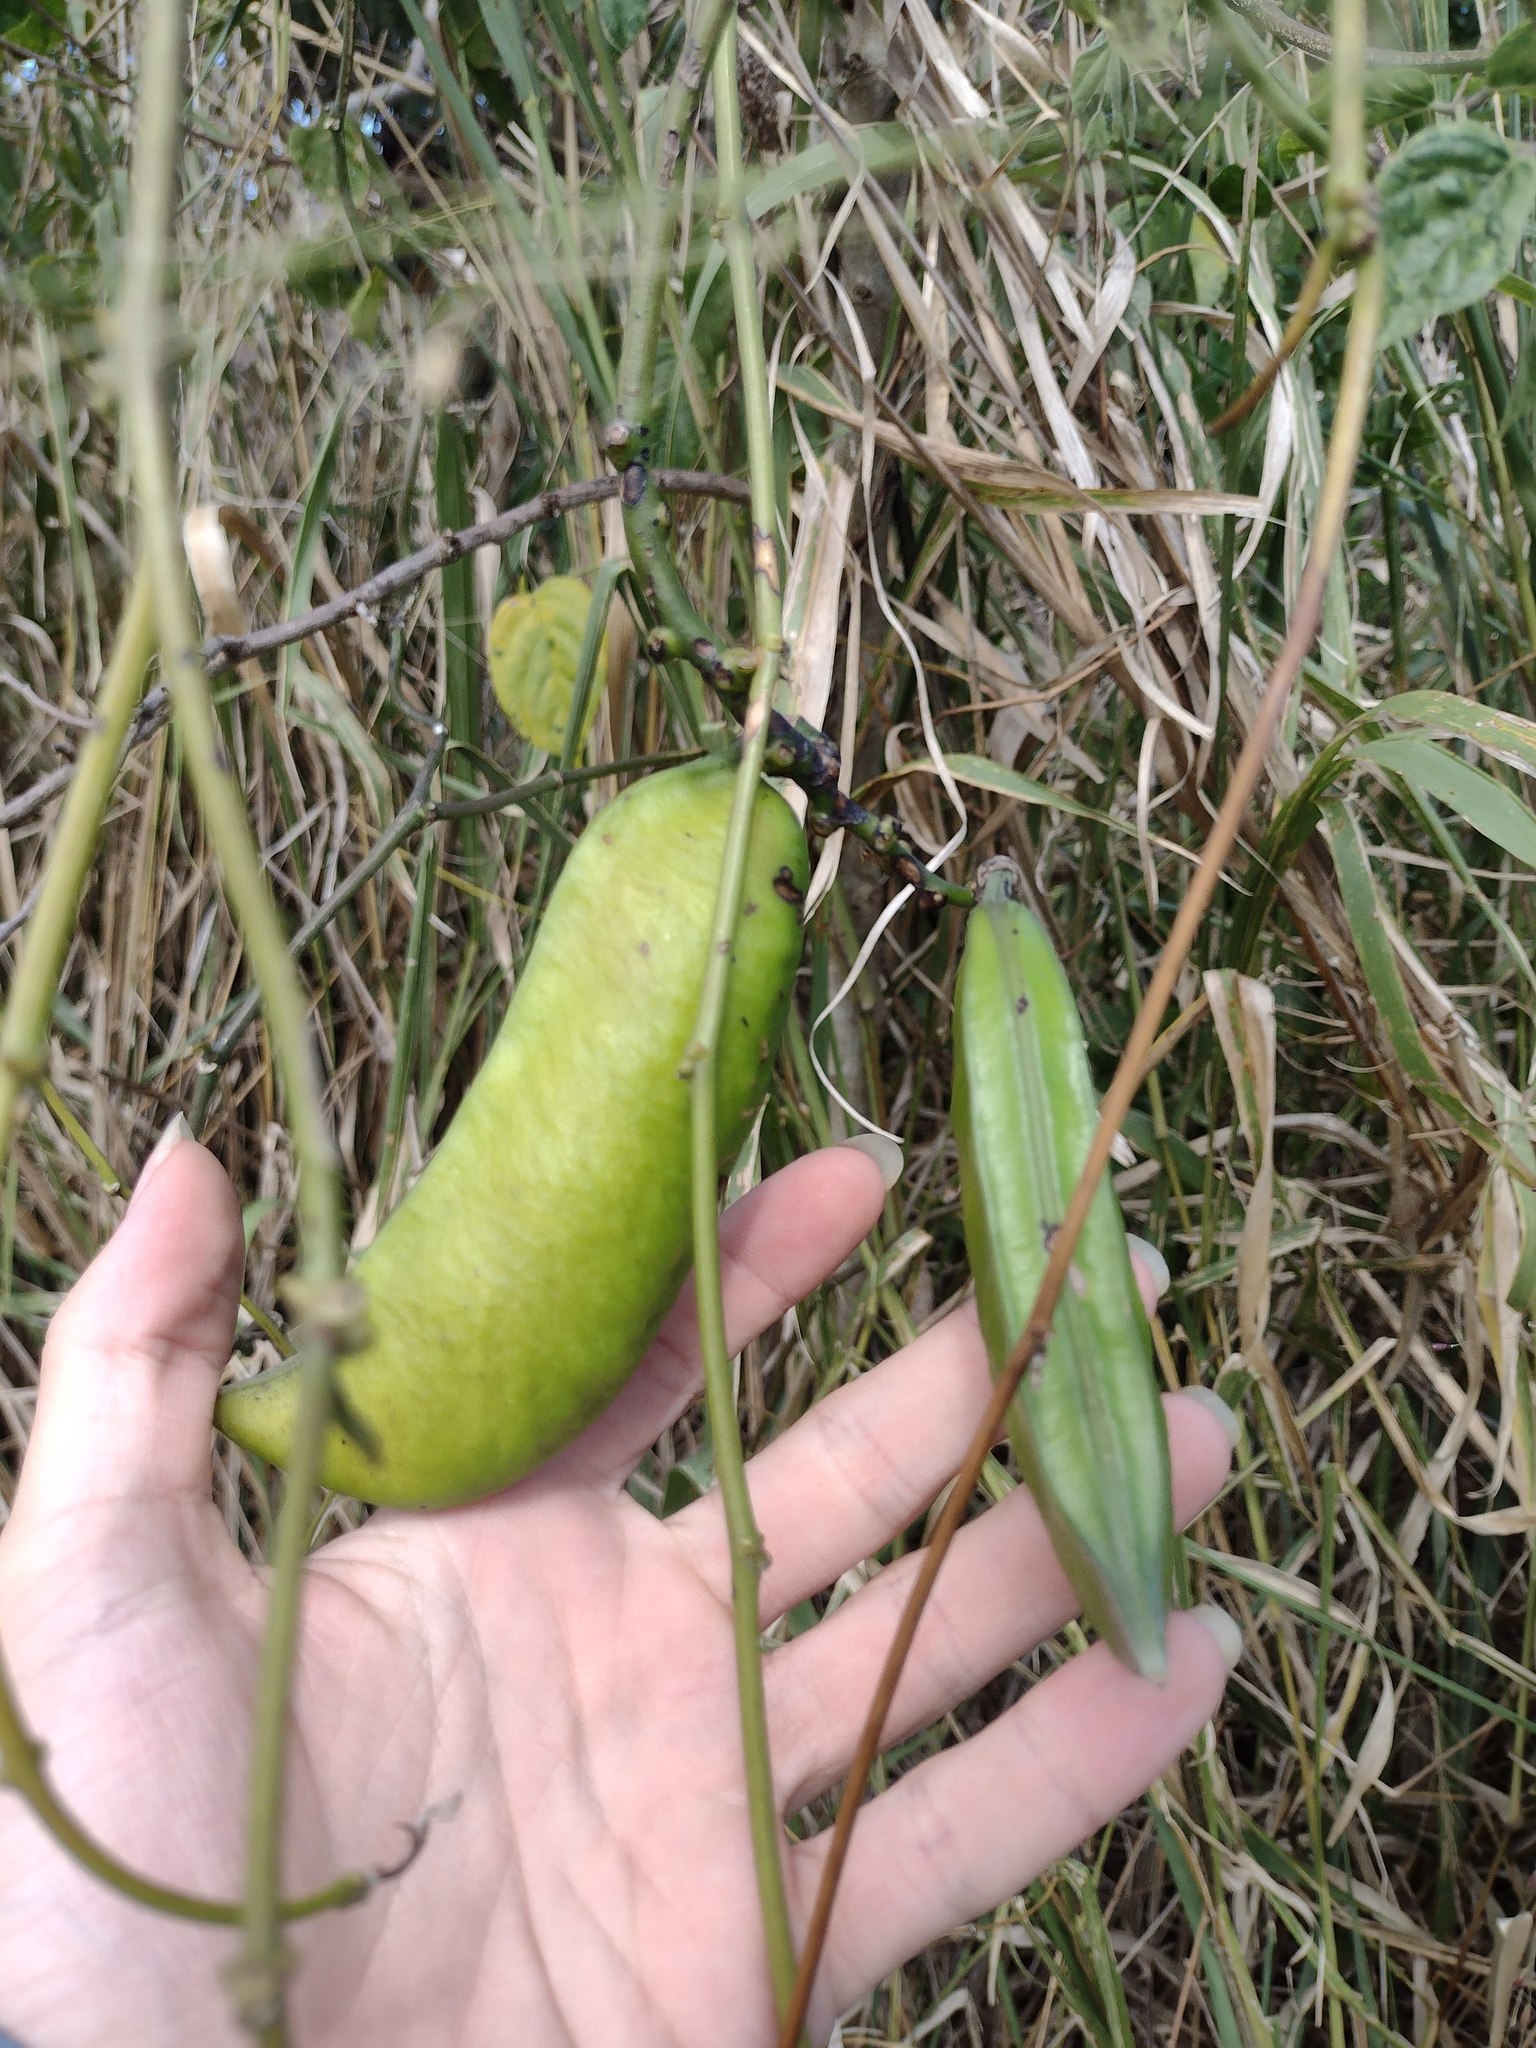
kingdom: Plantae
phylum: Tracheophyta
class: Magnoliopsida
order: Fabales
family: Fabaceae
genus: Canavalia
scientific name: Canavalia cathartica
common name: Maunaloa
